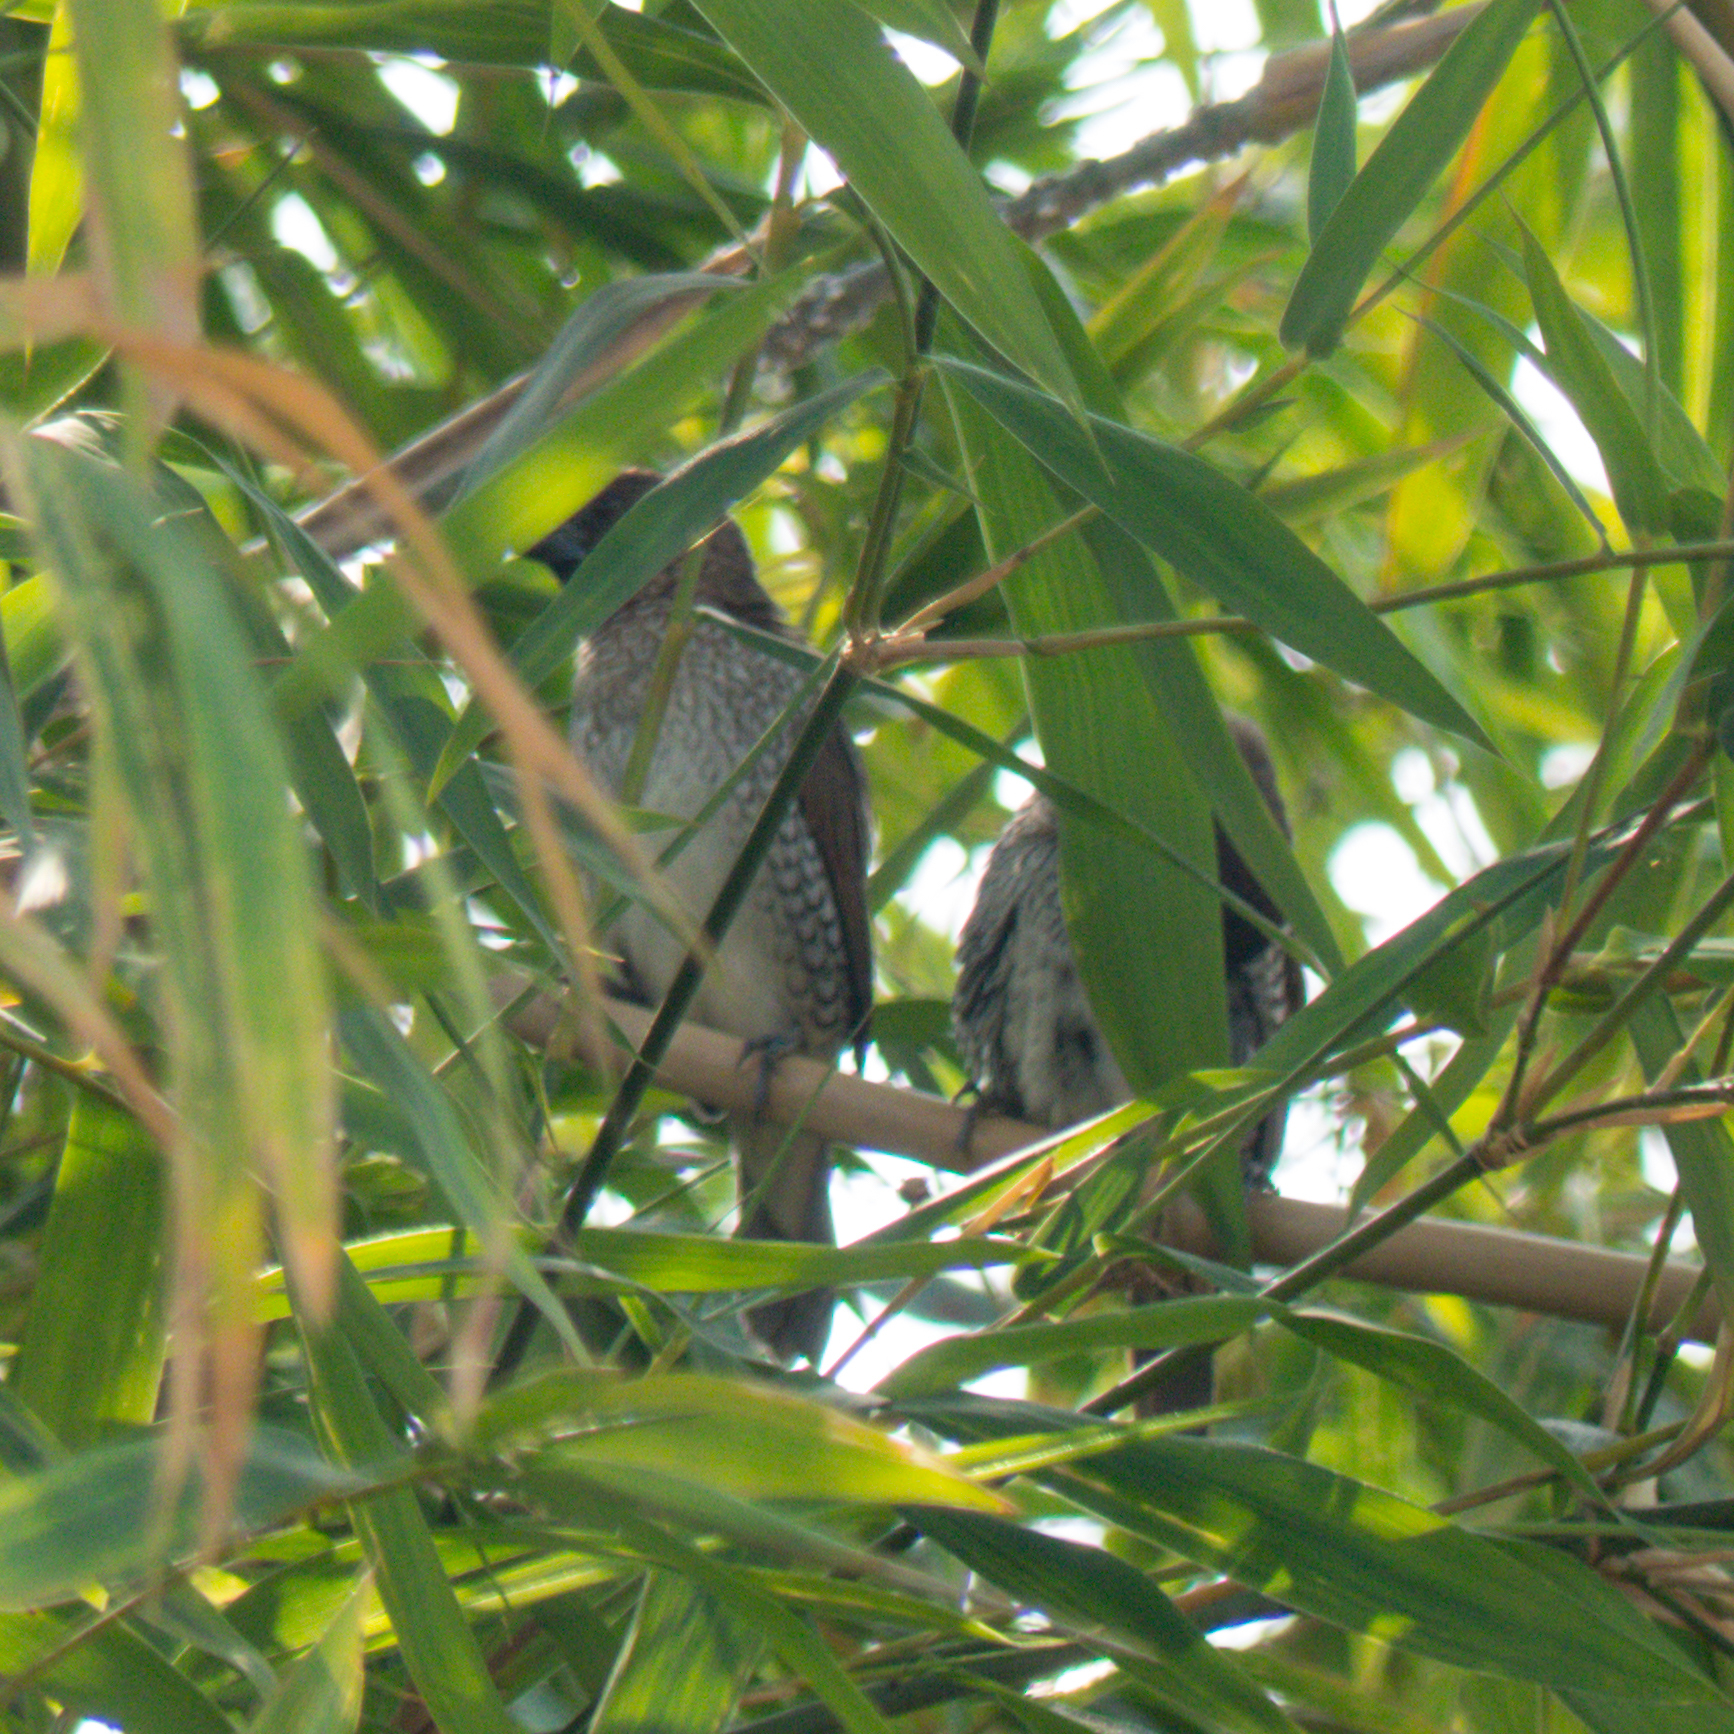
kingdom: Animalia
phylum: Chordata
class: Aves
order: Passeriformes
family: Estrildidae
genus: Lonchura
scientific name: Lonchura punctulata
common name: Scaly-breasted munia
